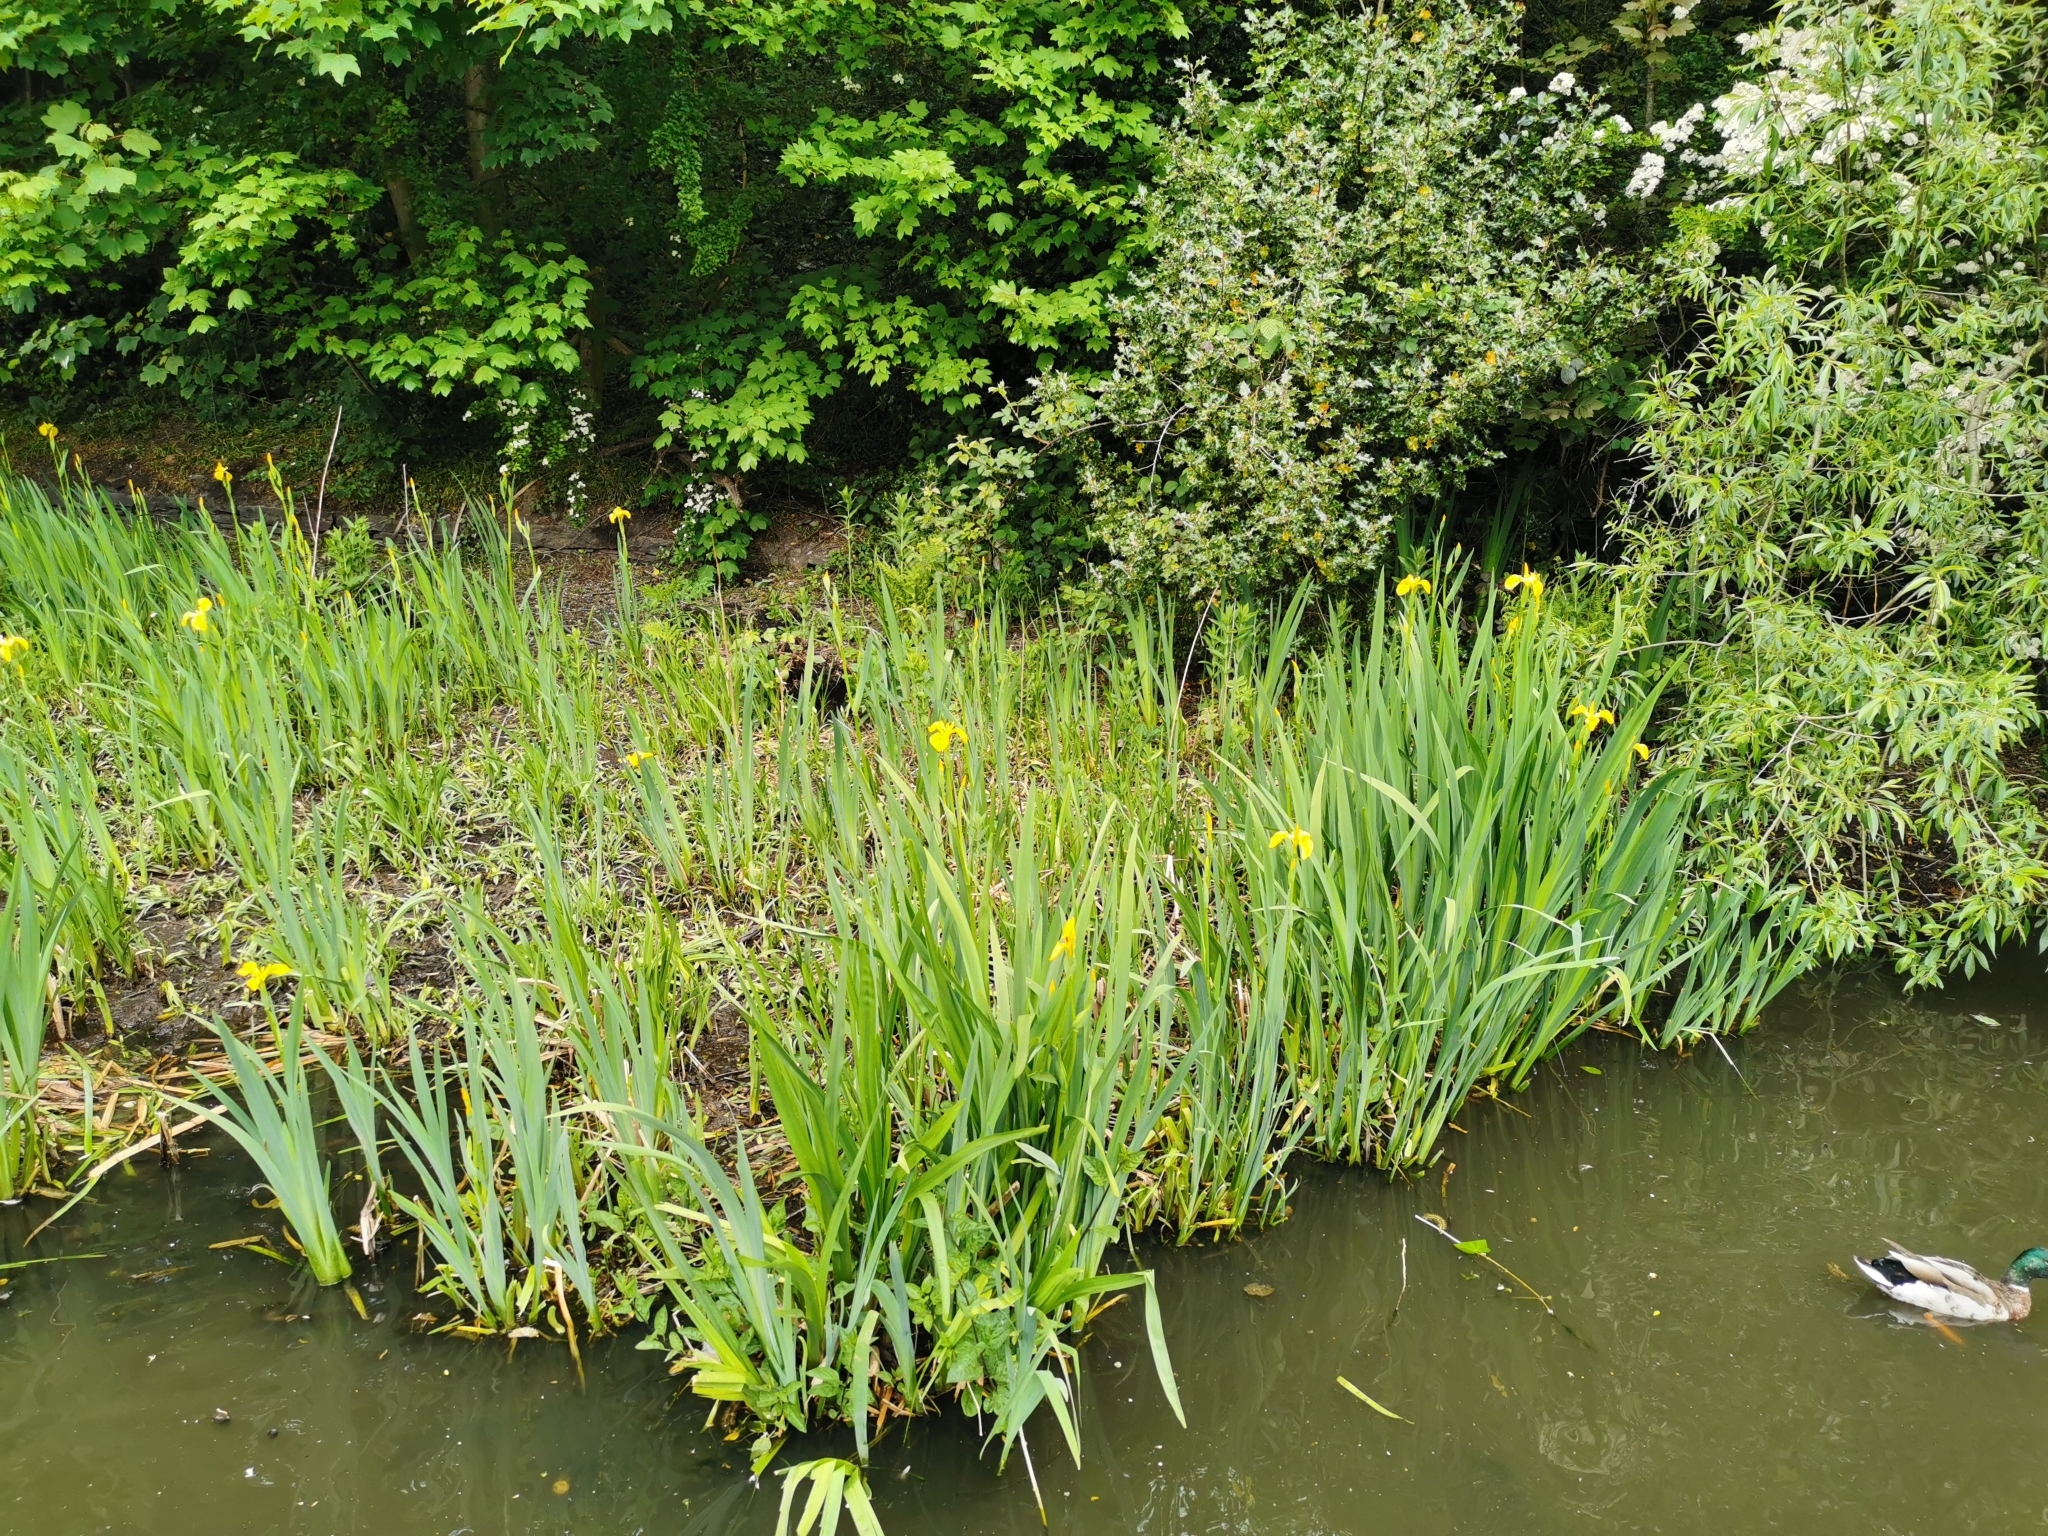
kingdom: Plantae
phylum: Tracheophyta
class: Liliopsida
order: Asparagales
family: Iridaceae
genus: Iris
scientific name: Iris pseudacorus
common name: Yellow flag
